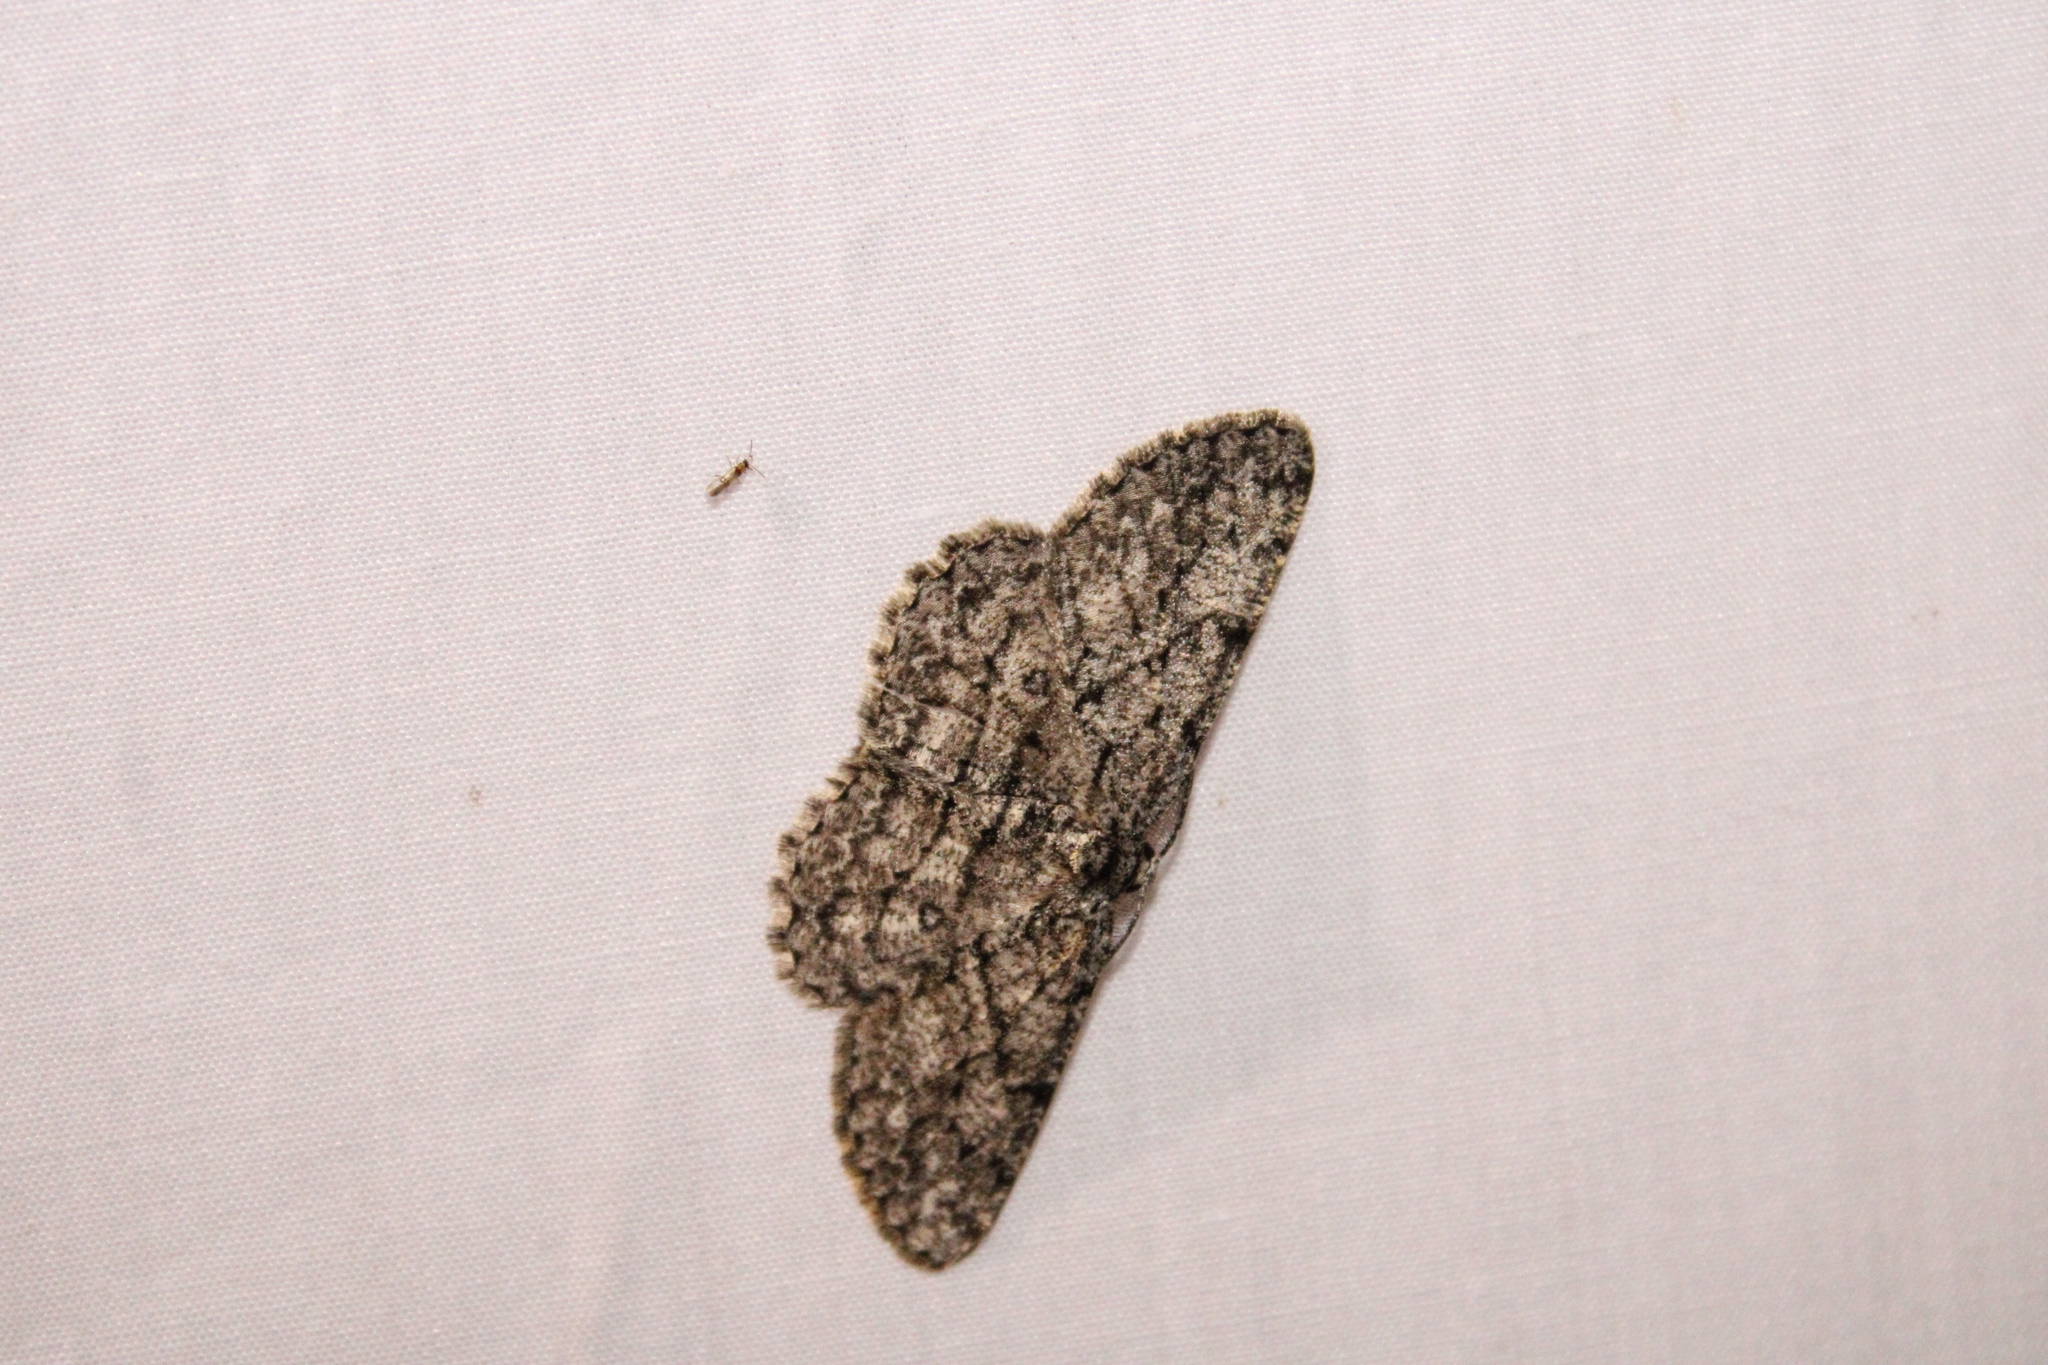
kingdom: Animalia
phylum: Arthropoda
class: Insecta
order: Lepidoptera
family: Geometridae
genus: Hypomecis
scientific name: Hypomecis umbrosaria
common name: Umber moth
